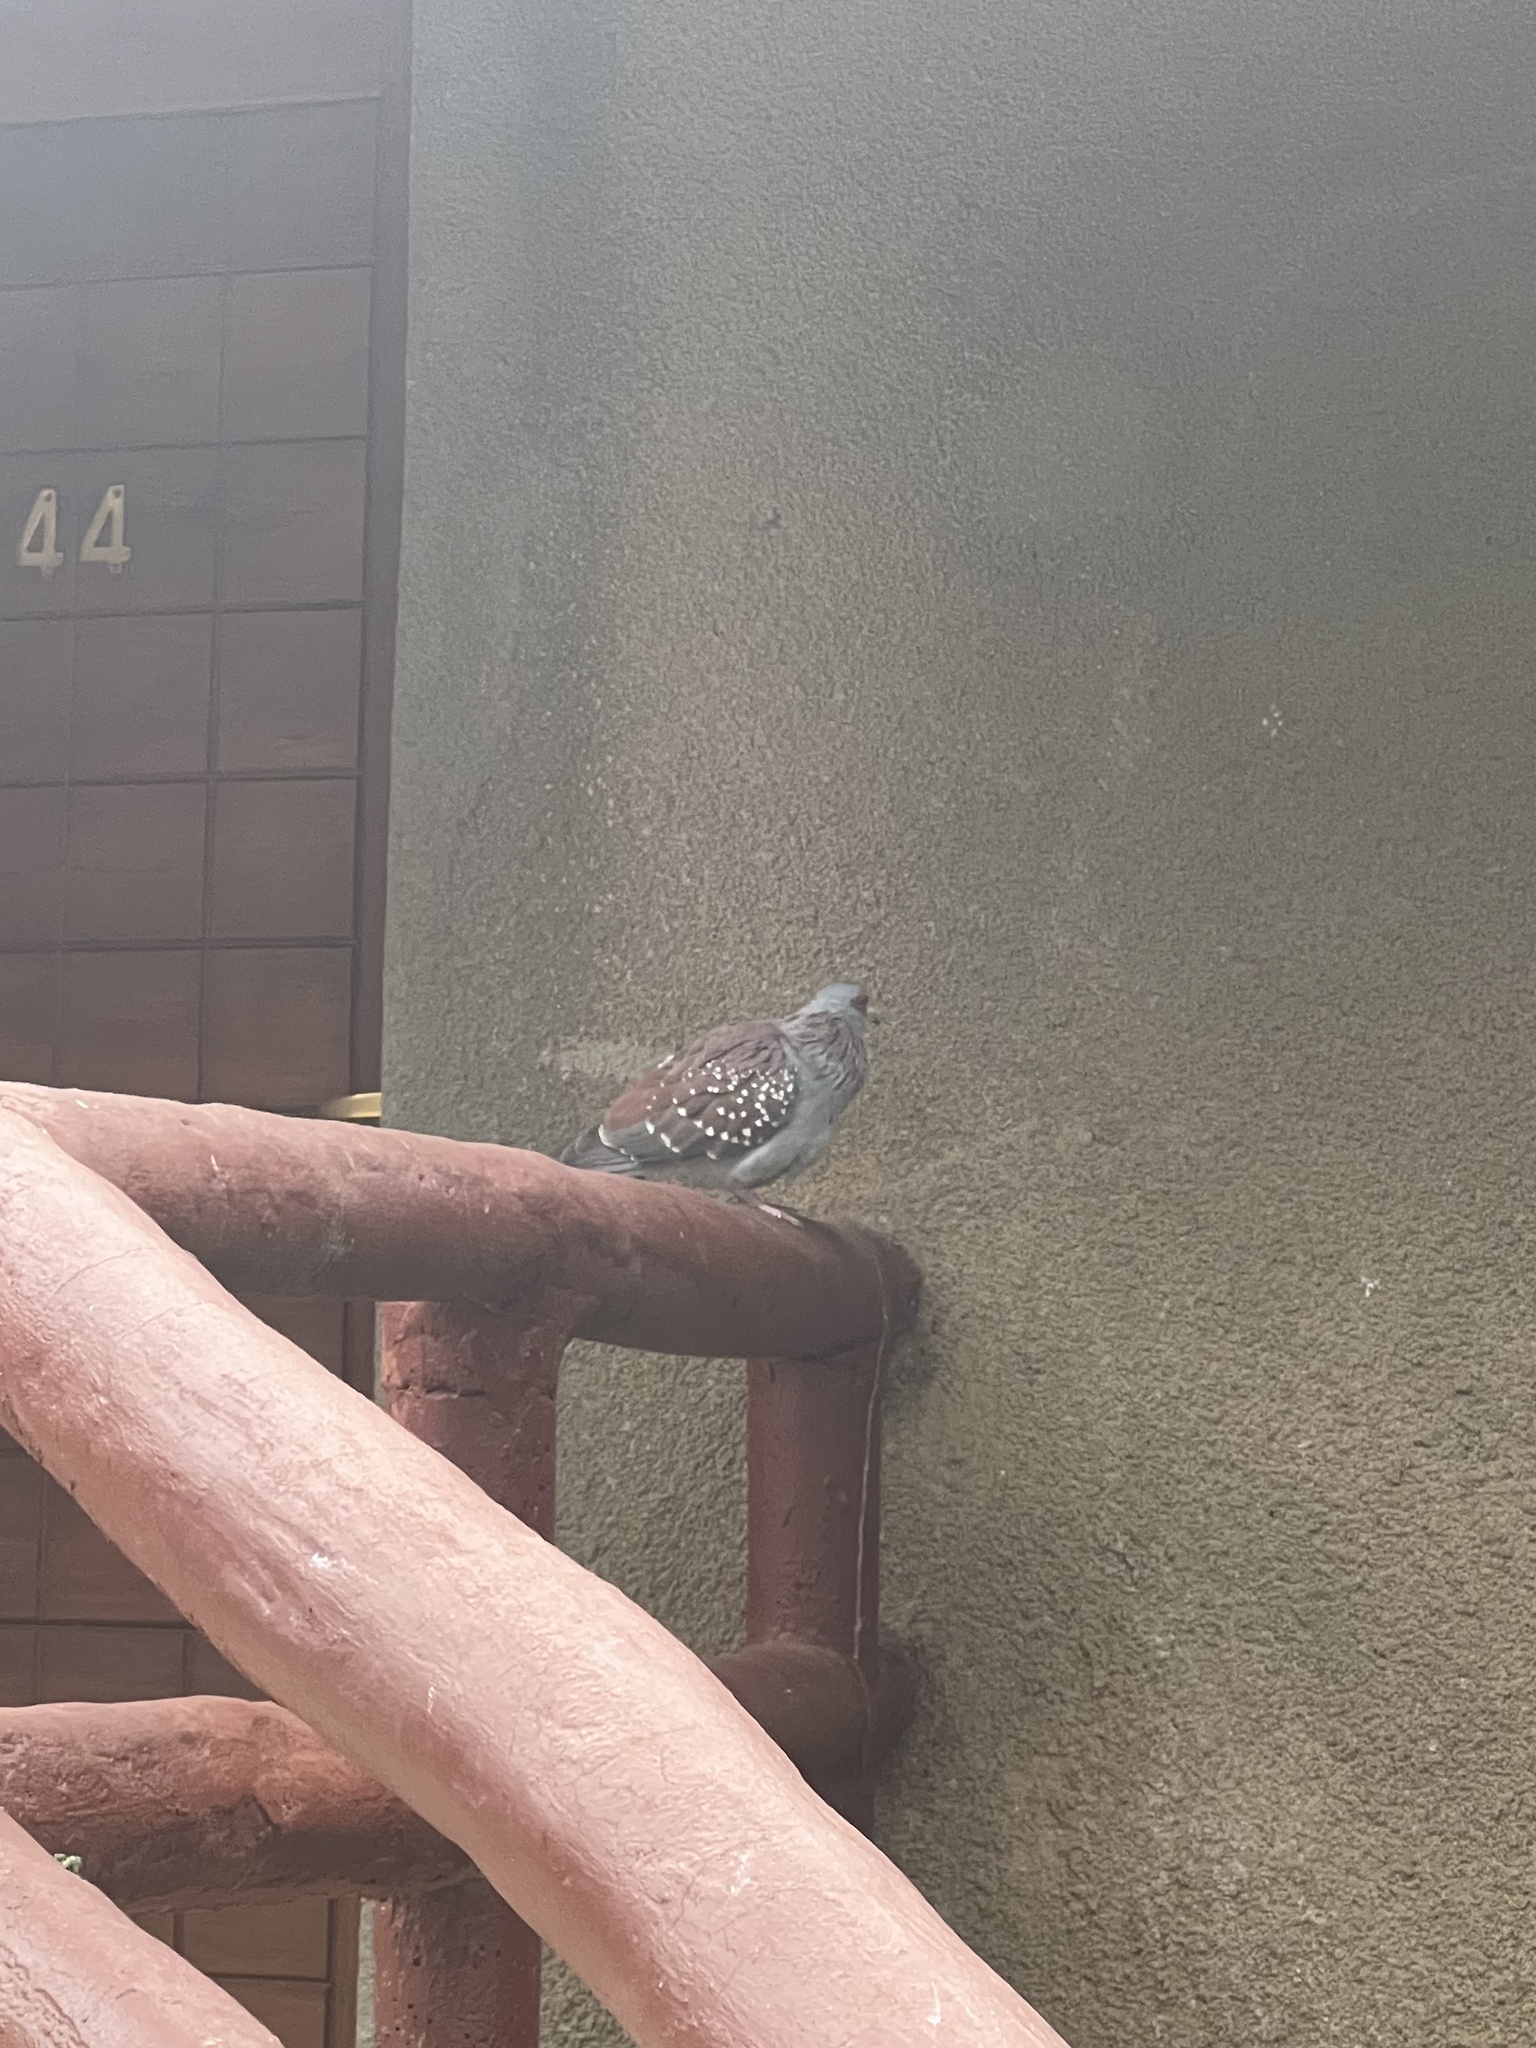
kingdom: Animalia
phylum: Chordata
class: Aves
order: Columbiformes
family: Columbidae
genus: Columba
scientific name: Columba guinea
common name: Speckled pigeon
